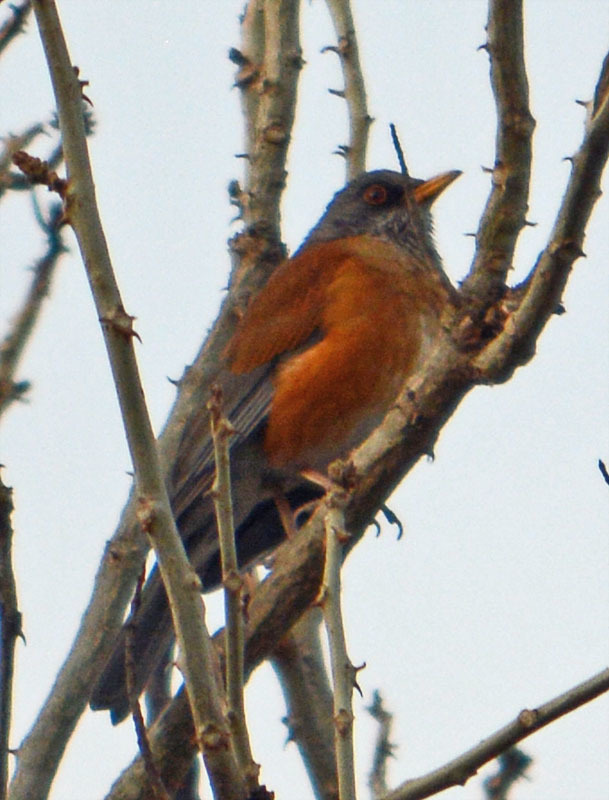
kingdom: Animalia
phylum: Chordata
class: Aves
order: Passeriformes
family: Turdidae
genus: Turdus
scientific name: Turdus rufopalliatus
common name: Rufous-backed robin
